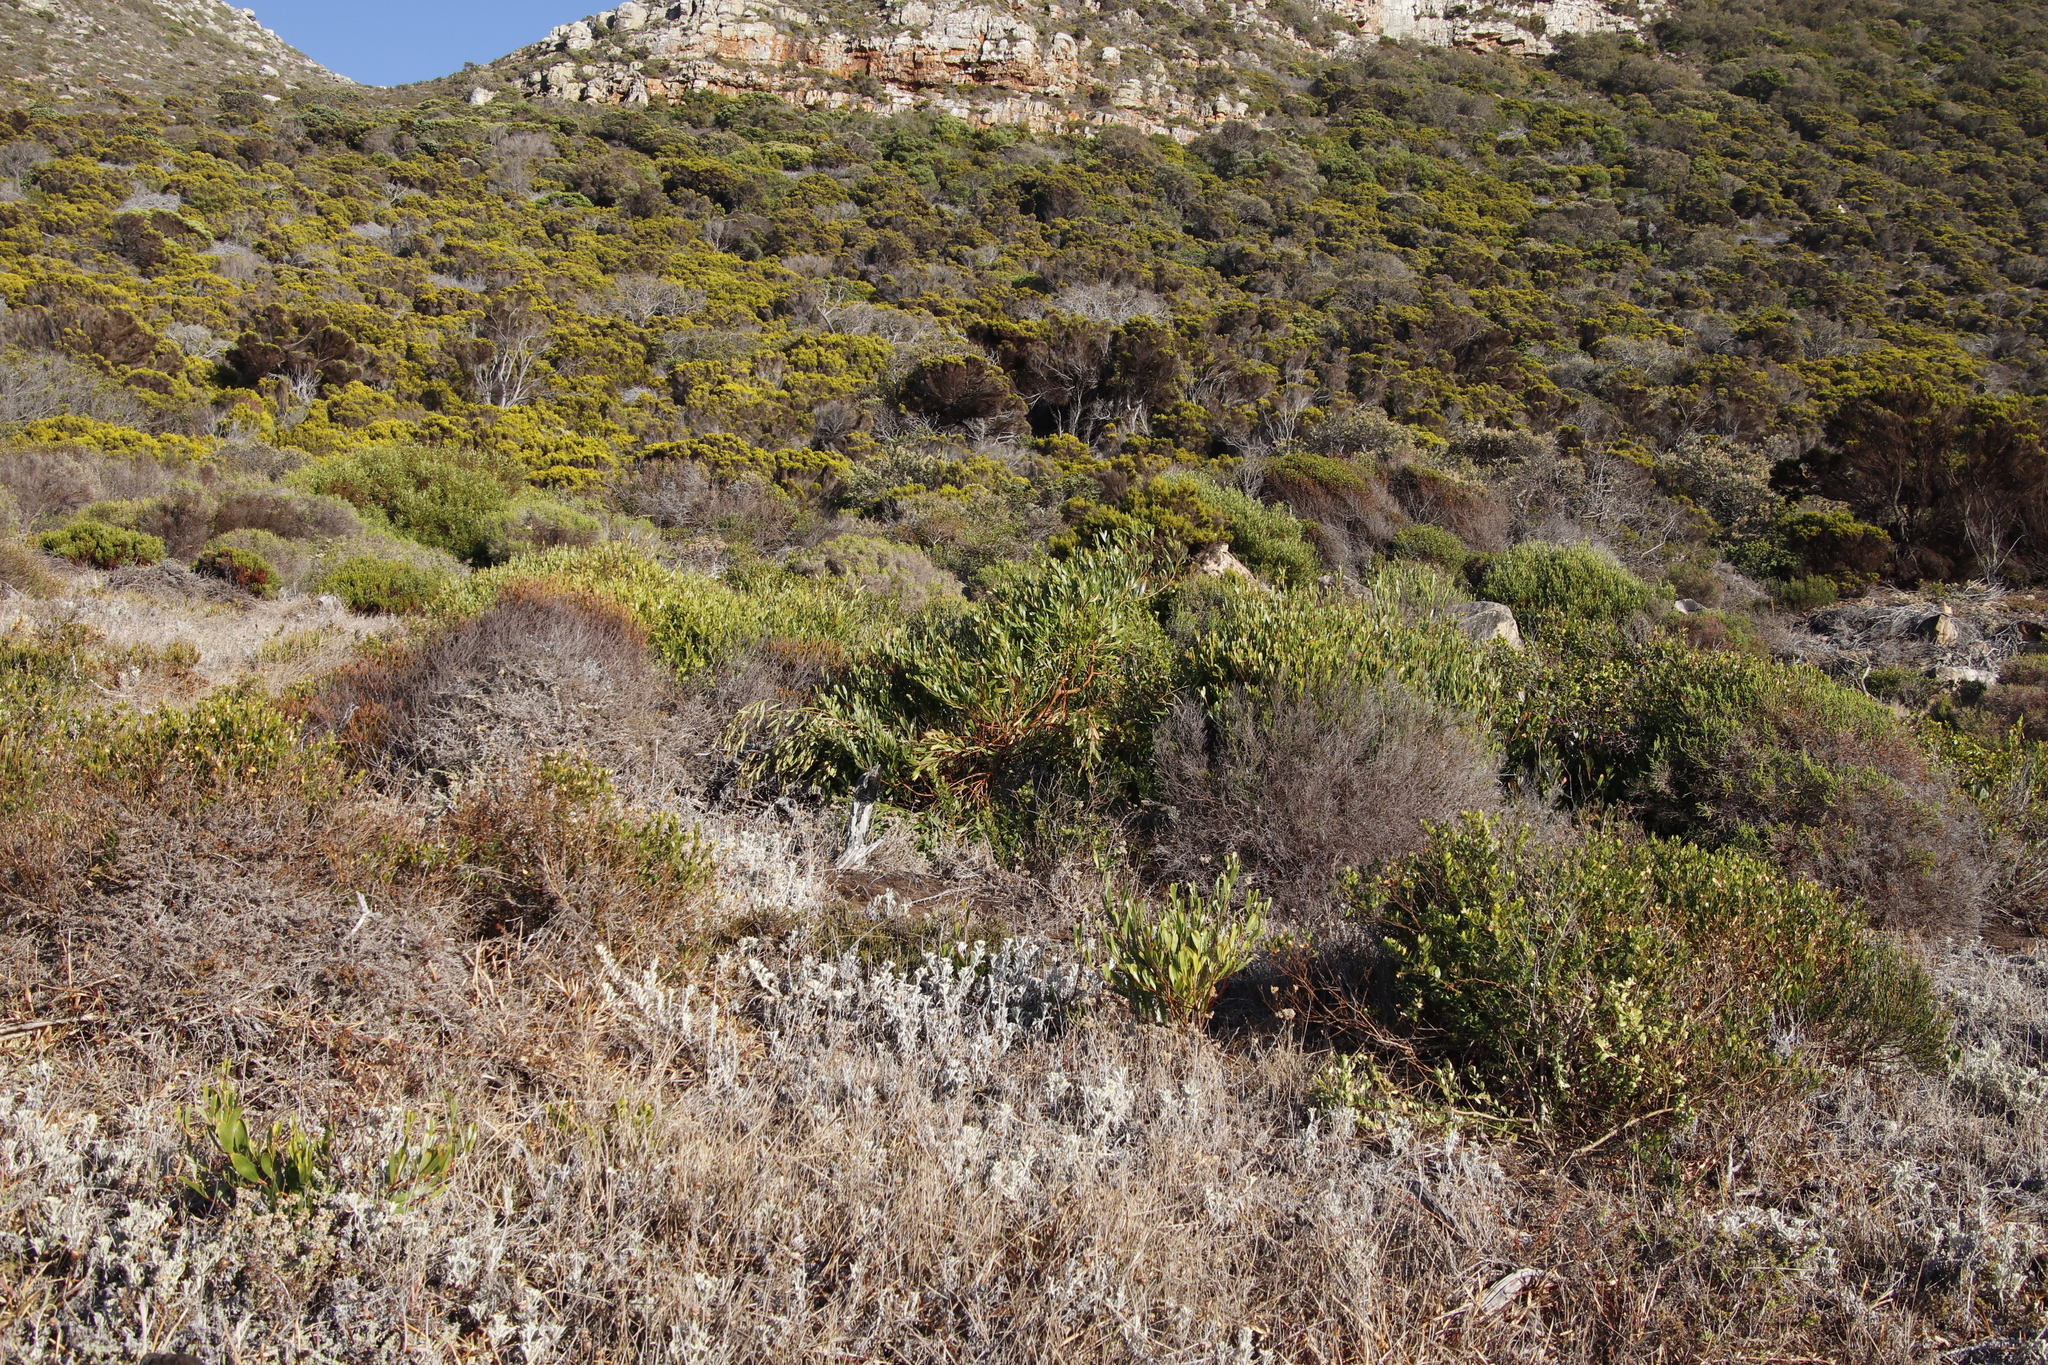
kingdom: Plantae
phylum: Tracheophyta
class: Magnoliopsida
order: Fabales
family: Fabaceae
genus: Acacia
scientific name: Acacia cyclops
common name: Coastal wattle
